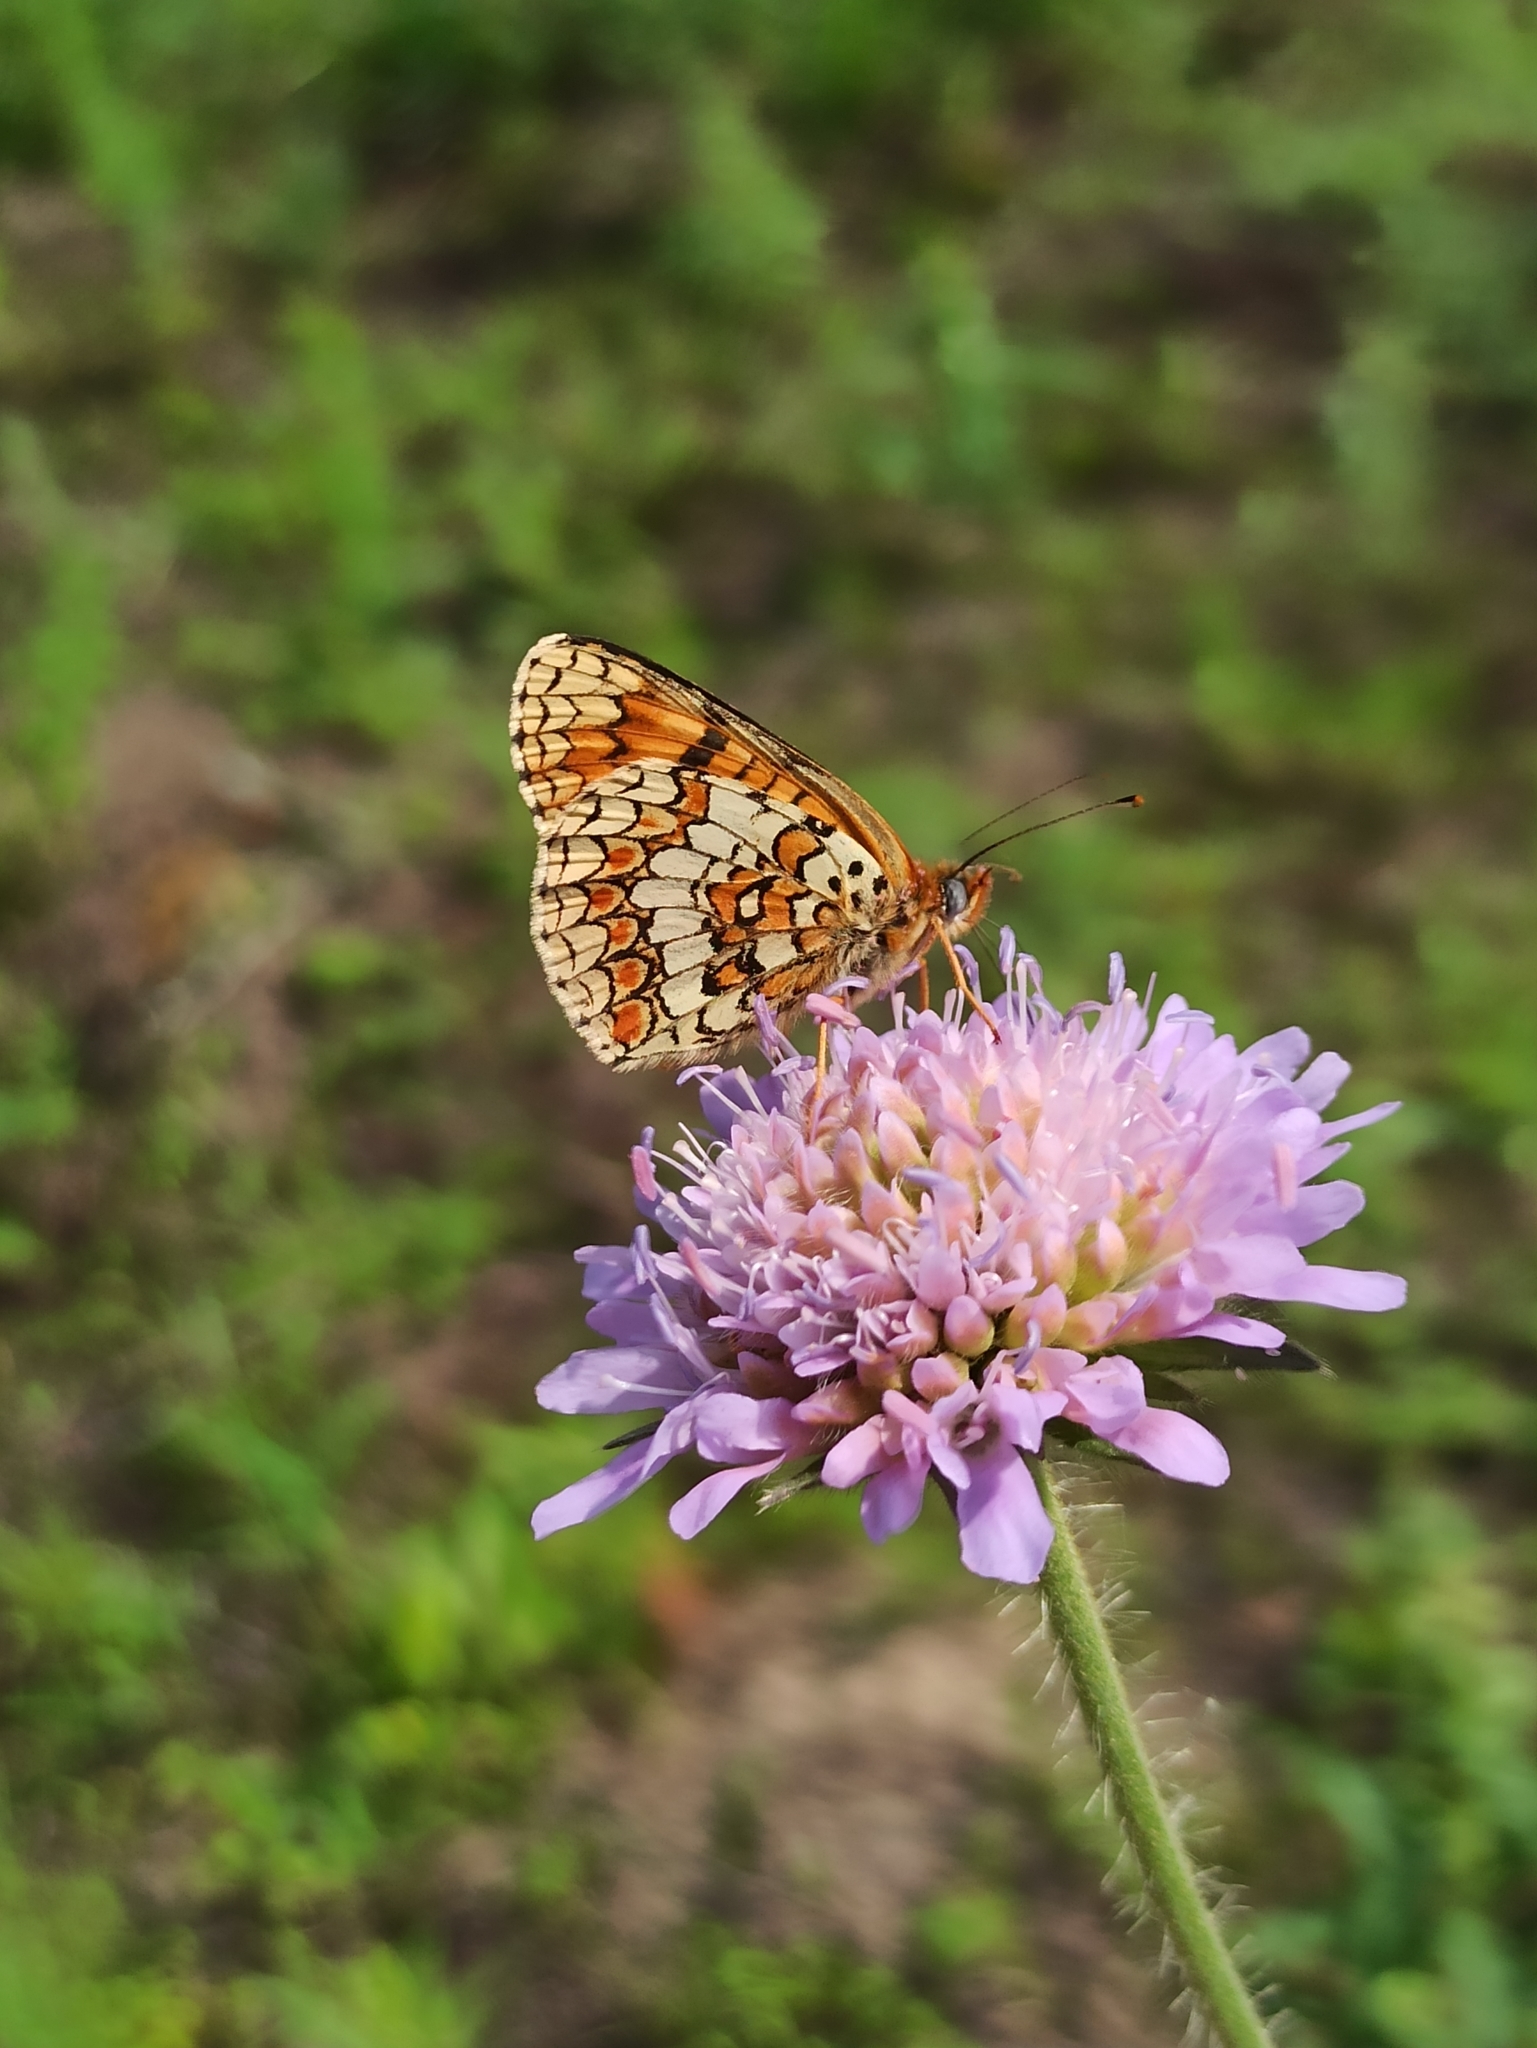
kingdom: Animalia
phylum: Arthropoda
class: Insecta
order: Lepidoptera
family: Nymphalidae
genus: Melitaea
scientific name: Melitaea phoebe
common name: Knapweed fritillary
